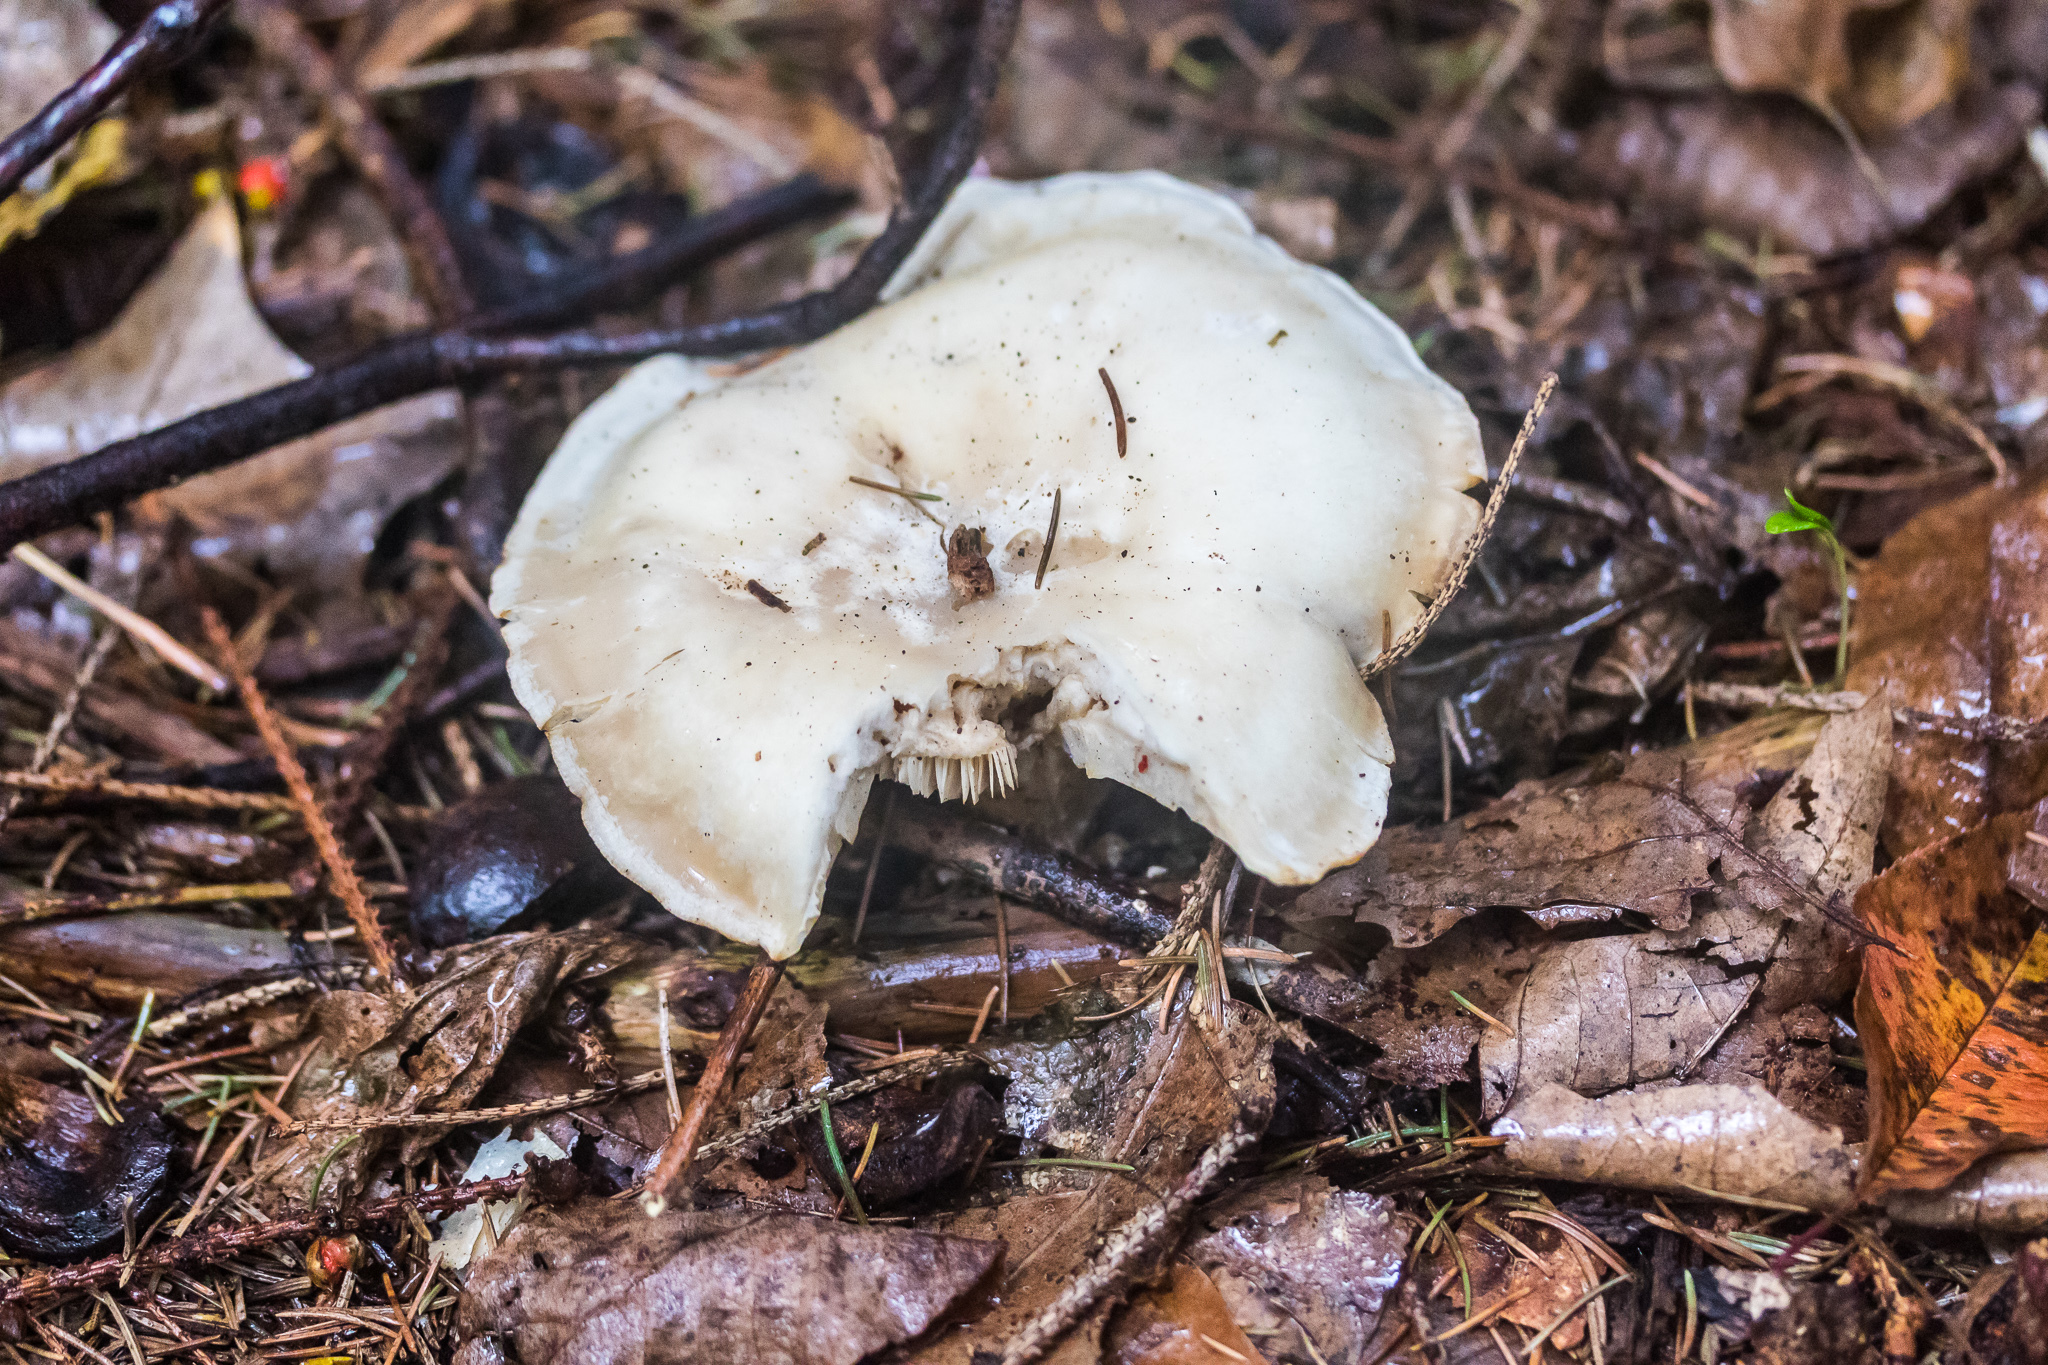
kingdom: Fungi
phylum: Basidiomycota
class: Agaricomycetes
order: Agaricales
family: Tricholomataceae
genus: Lepista
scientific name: Lepista subconnexa
